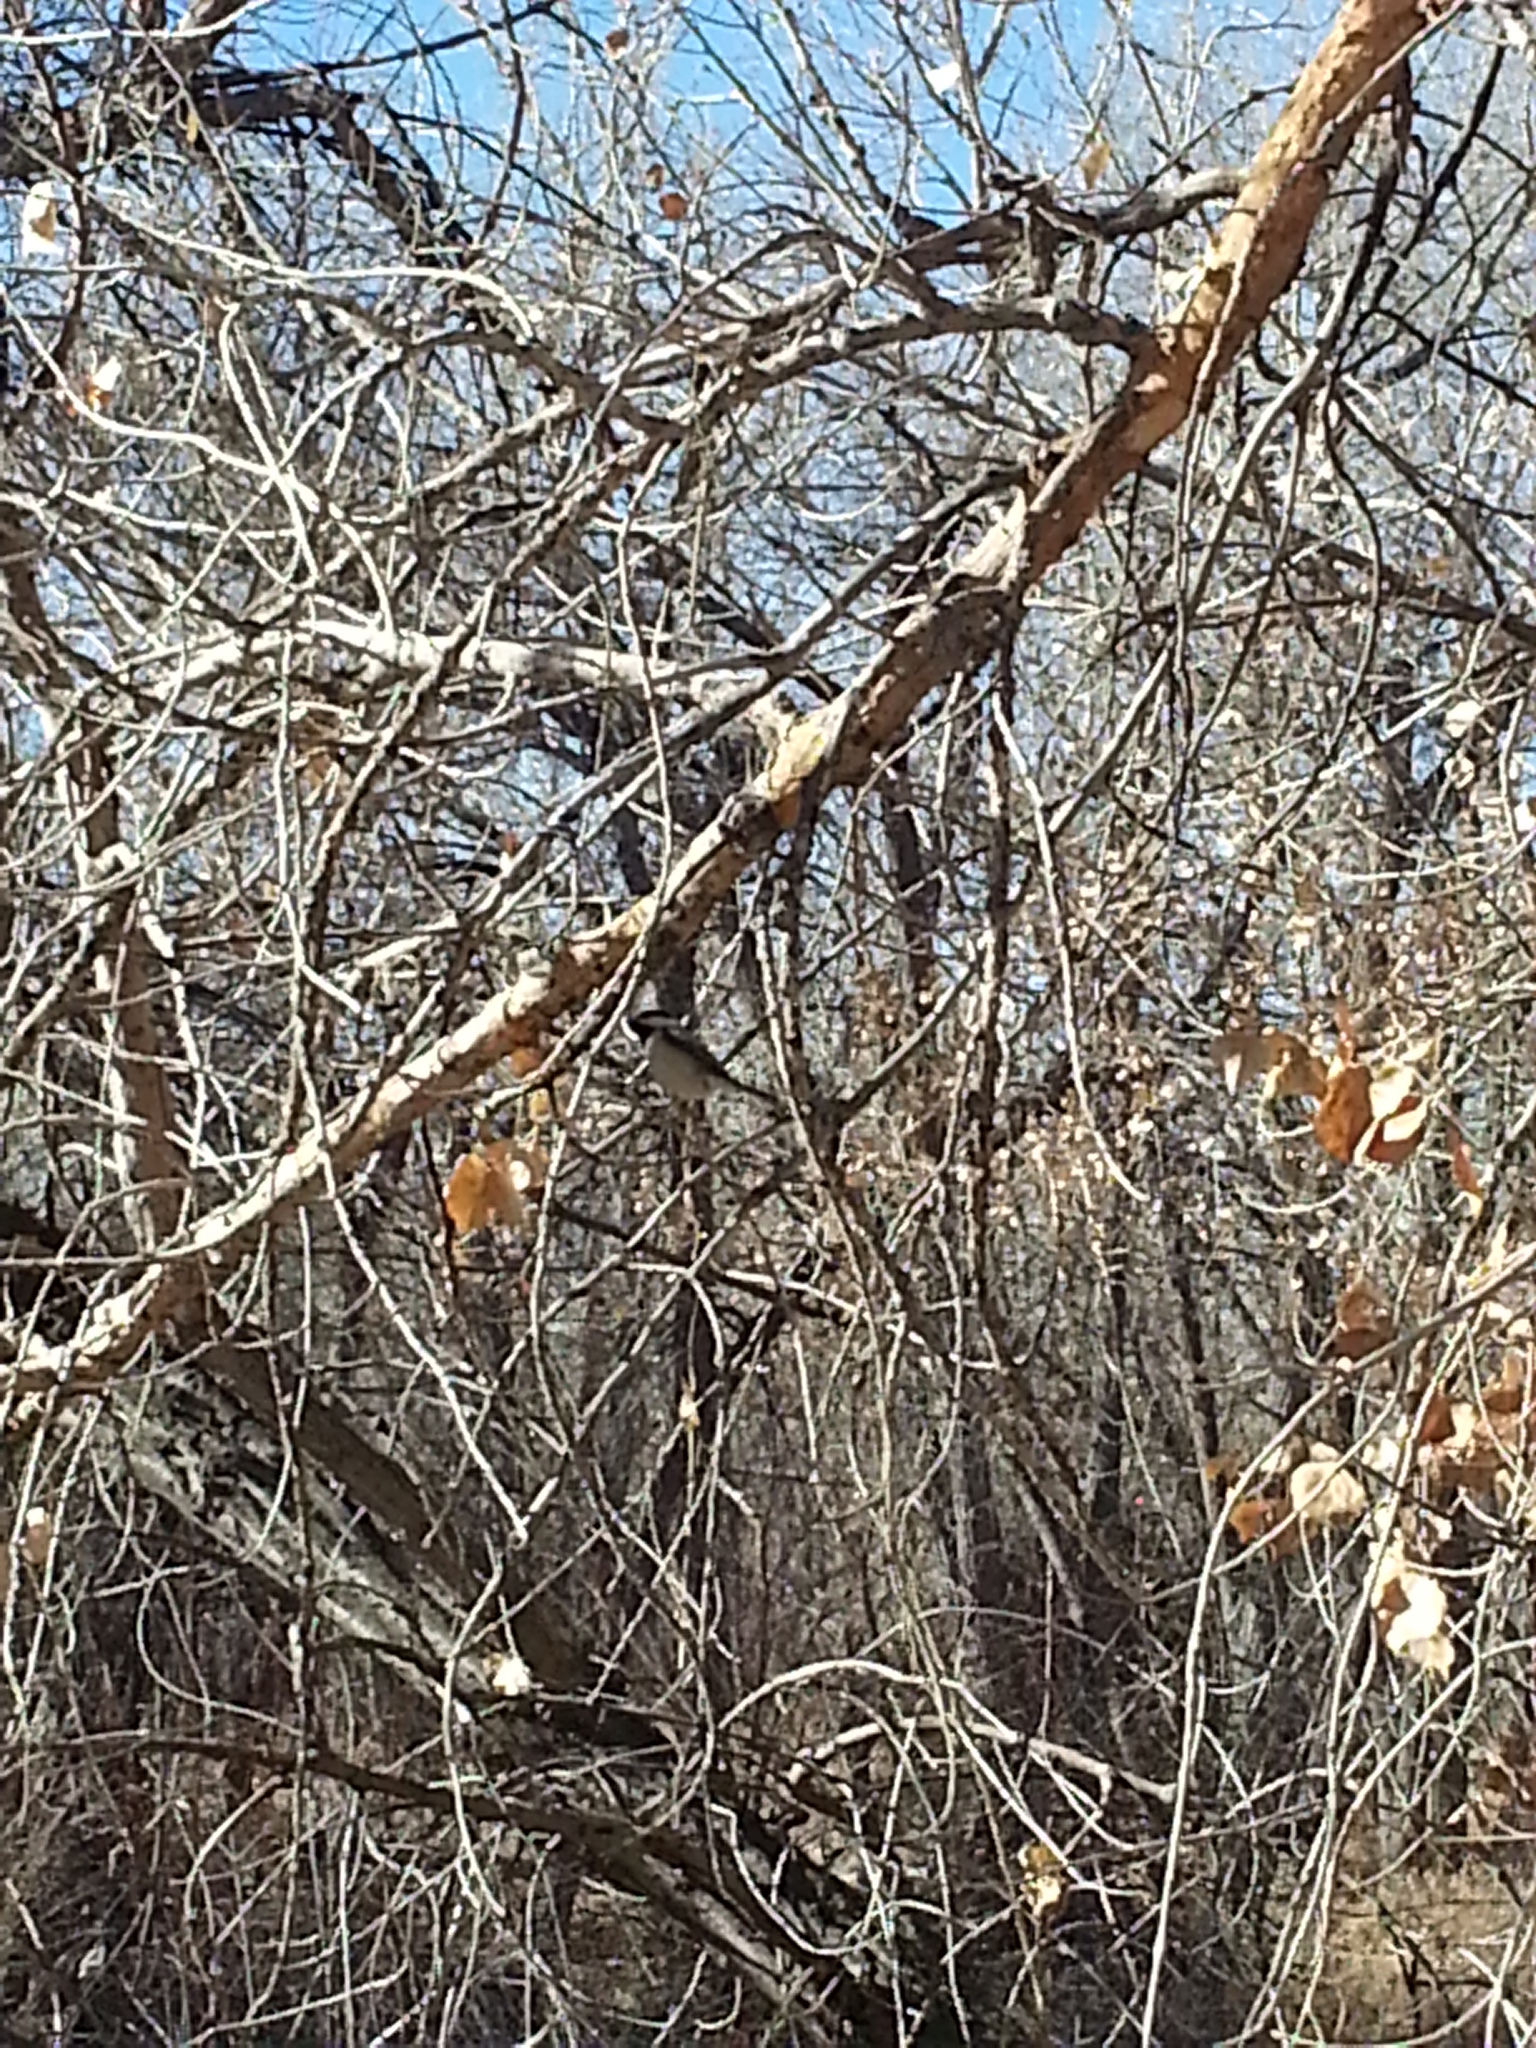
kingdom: Animalia
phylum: Chordata
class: Aves
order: Passeriformes
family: Paridae
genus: Poecile
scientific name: Poecile atricapillus
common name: Black-capped chickadee
